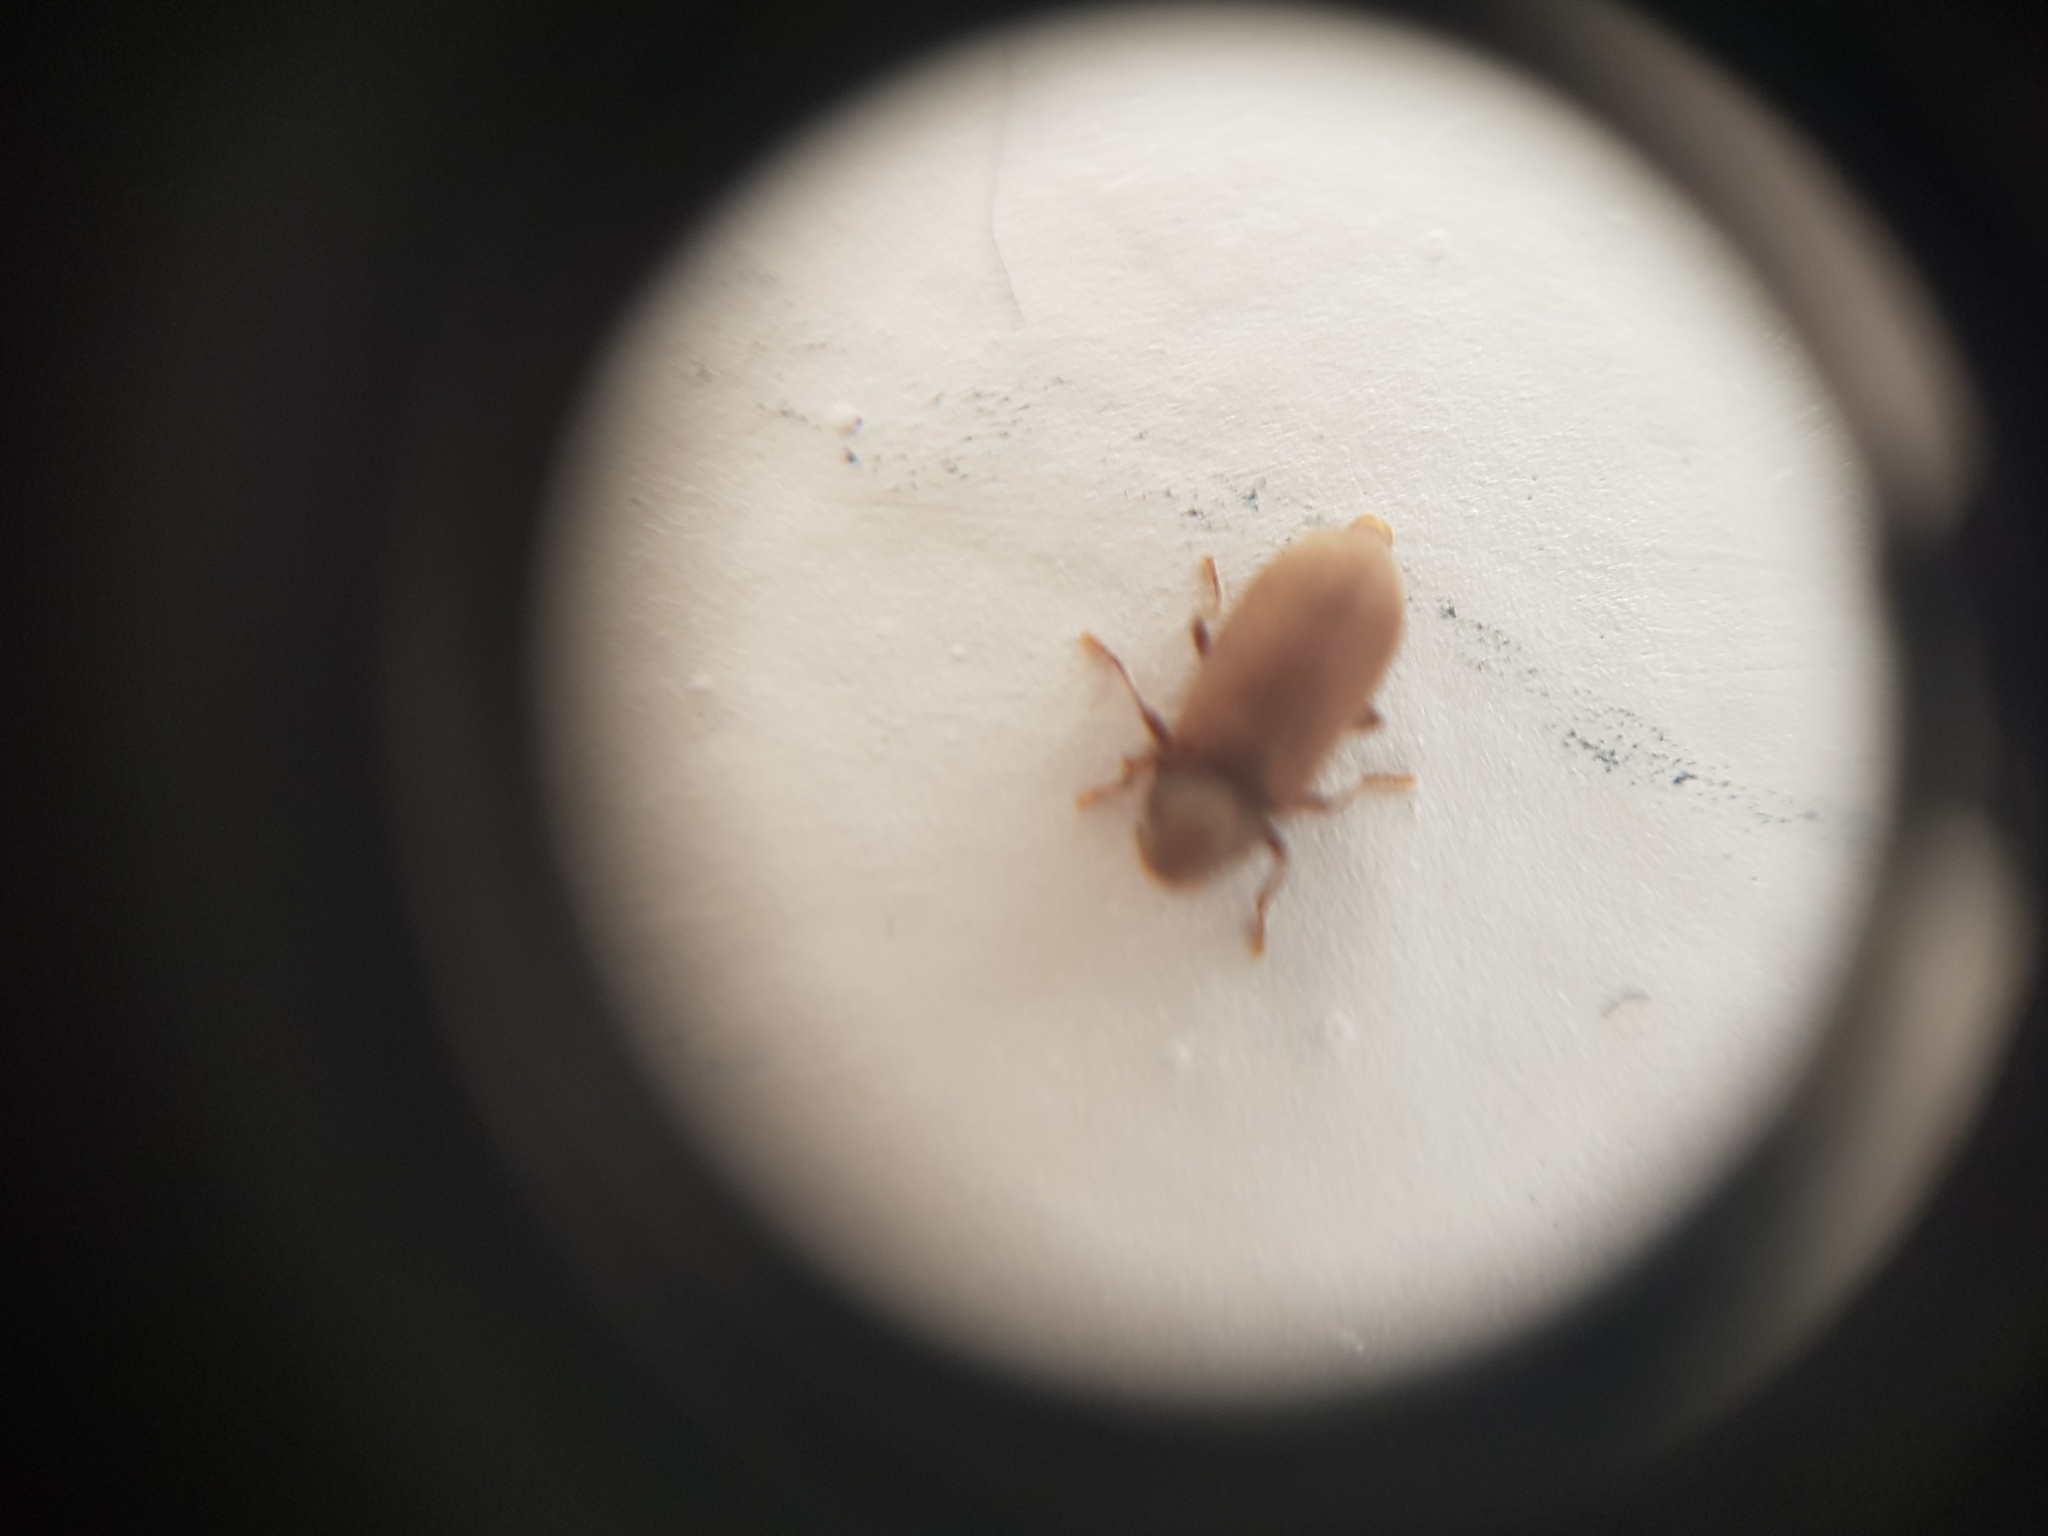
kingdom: Animalia
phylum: Arthropoda
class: Insecta
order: Coleoptera
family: Anobiidae
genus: Anobium
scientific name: Anobium punctatum
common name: Furniture beetle
